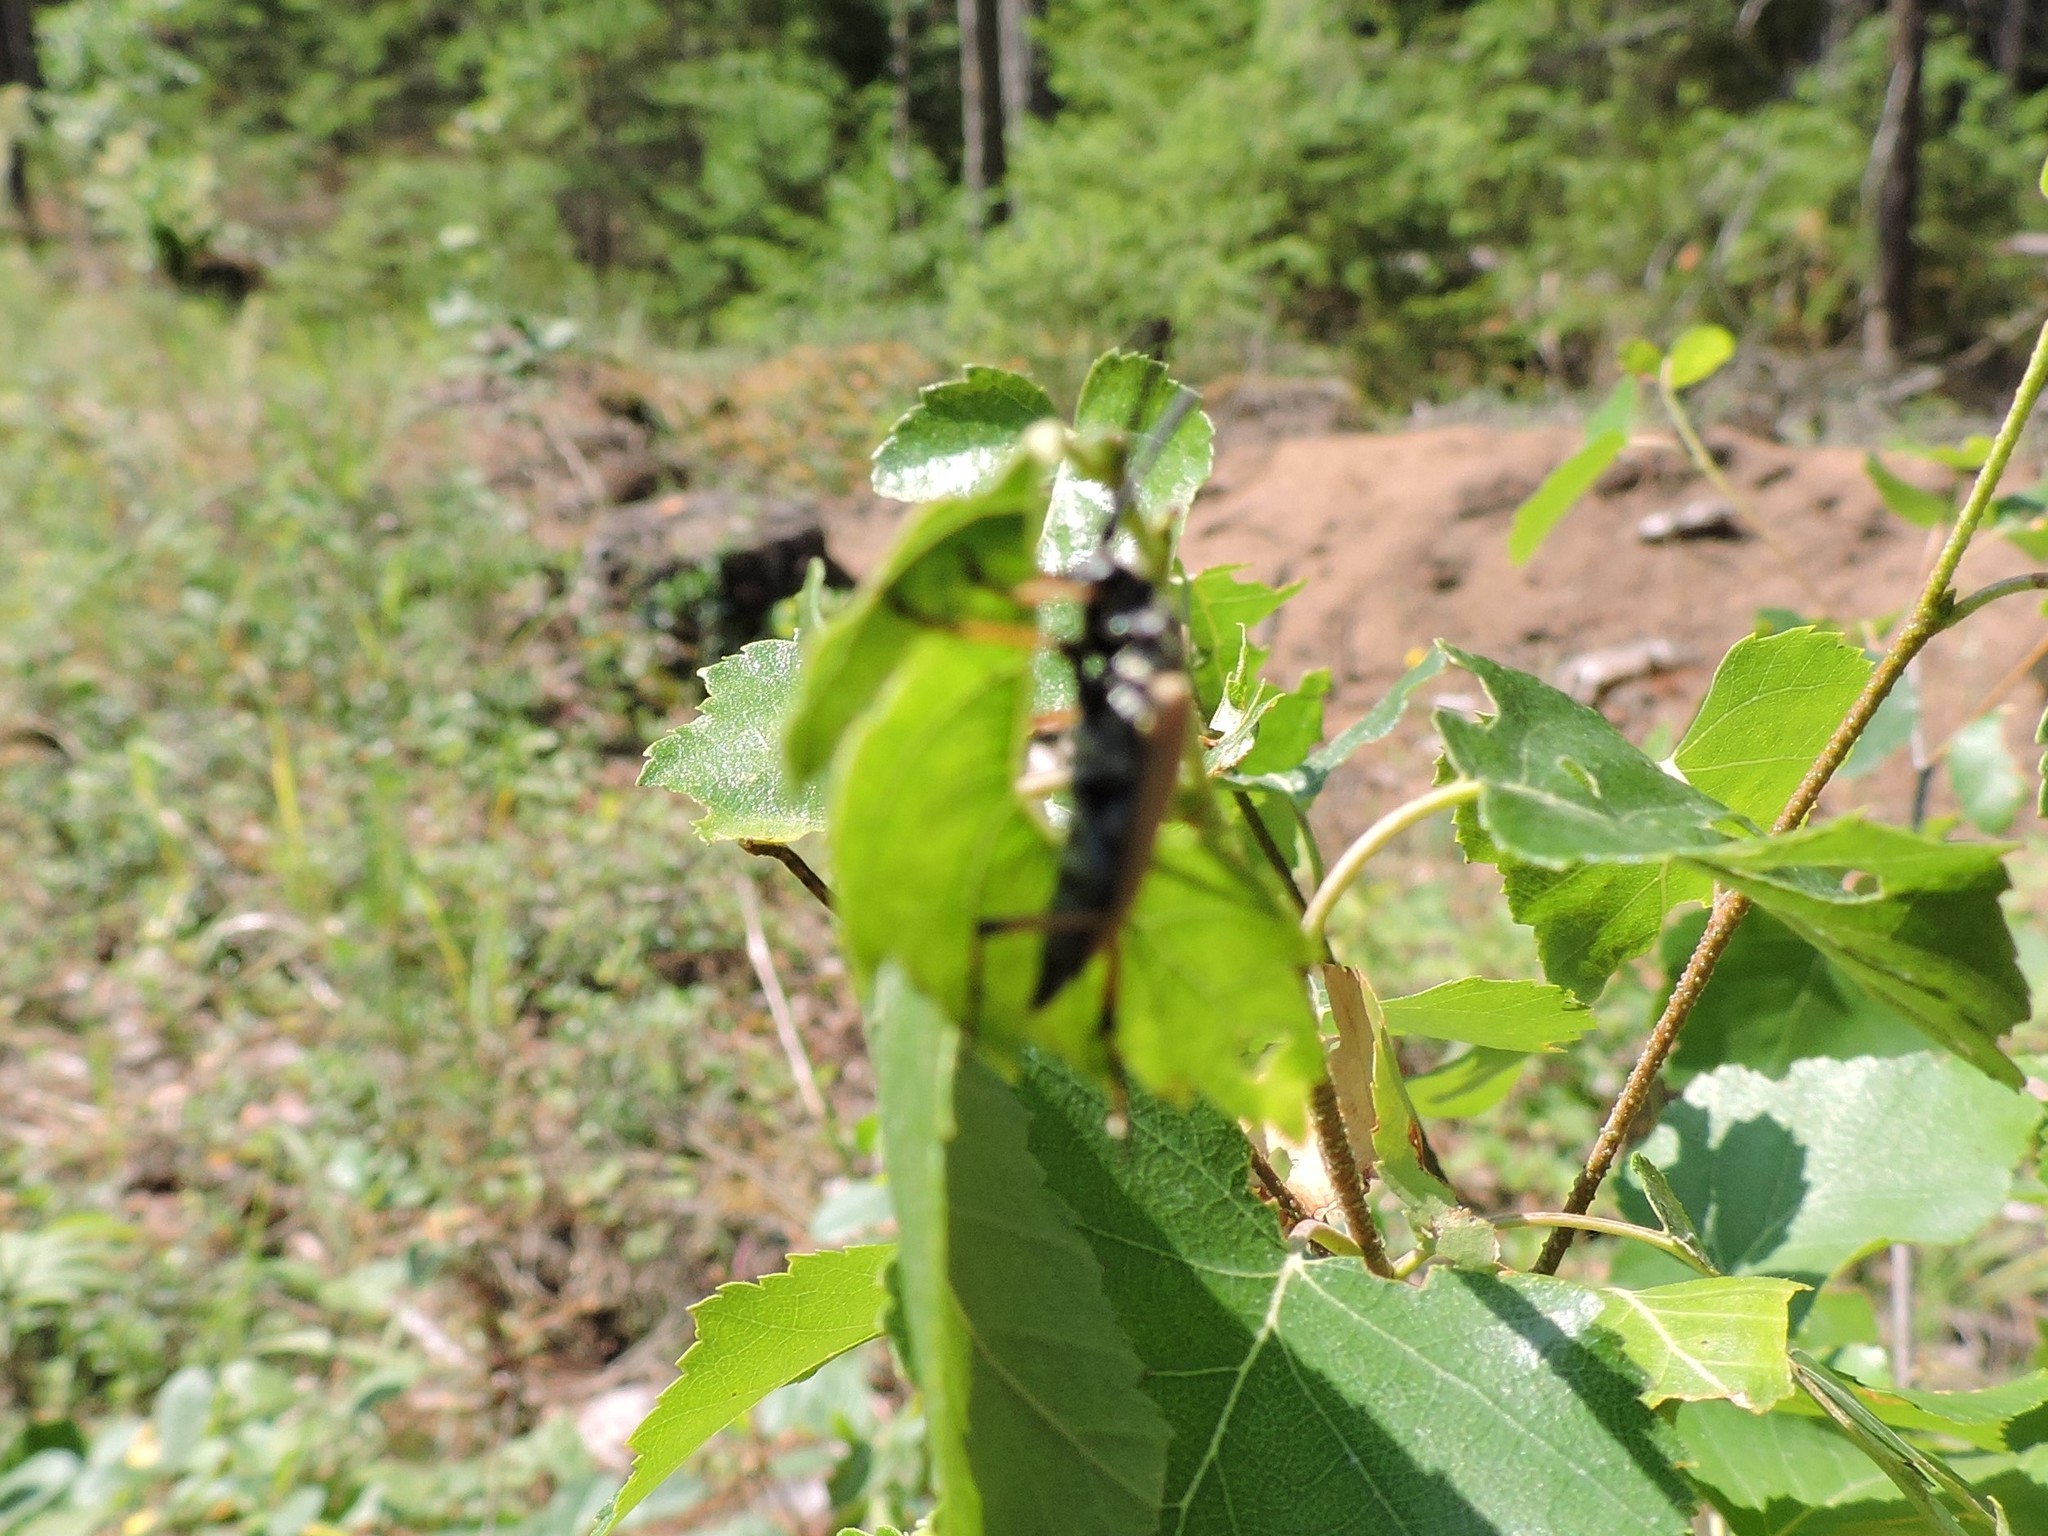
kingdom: Animalia
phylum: Arthropoda
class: Insecta
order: Coleoptera
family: Cerambycidae
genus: Stictoleptura
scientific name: Stictoleptura rubra
